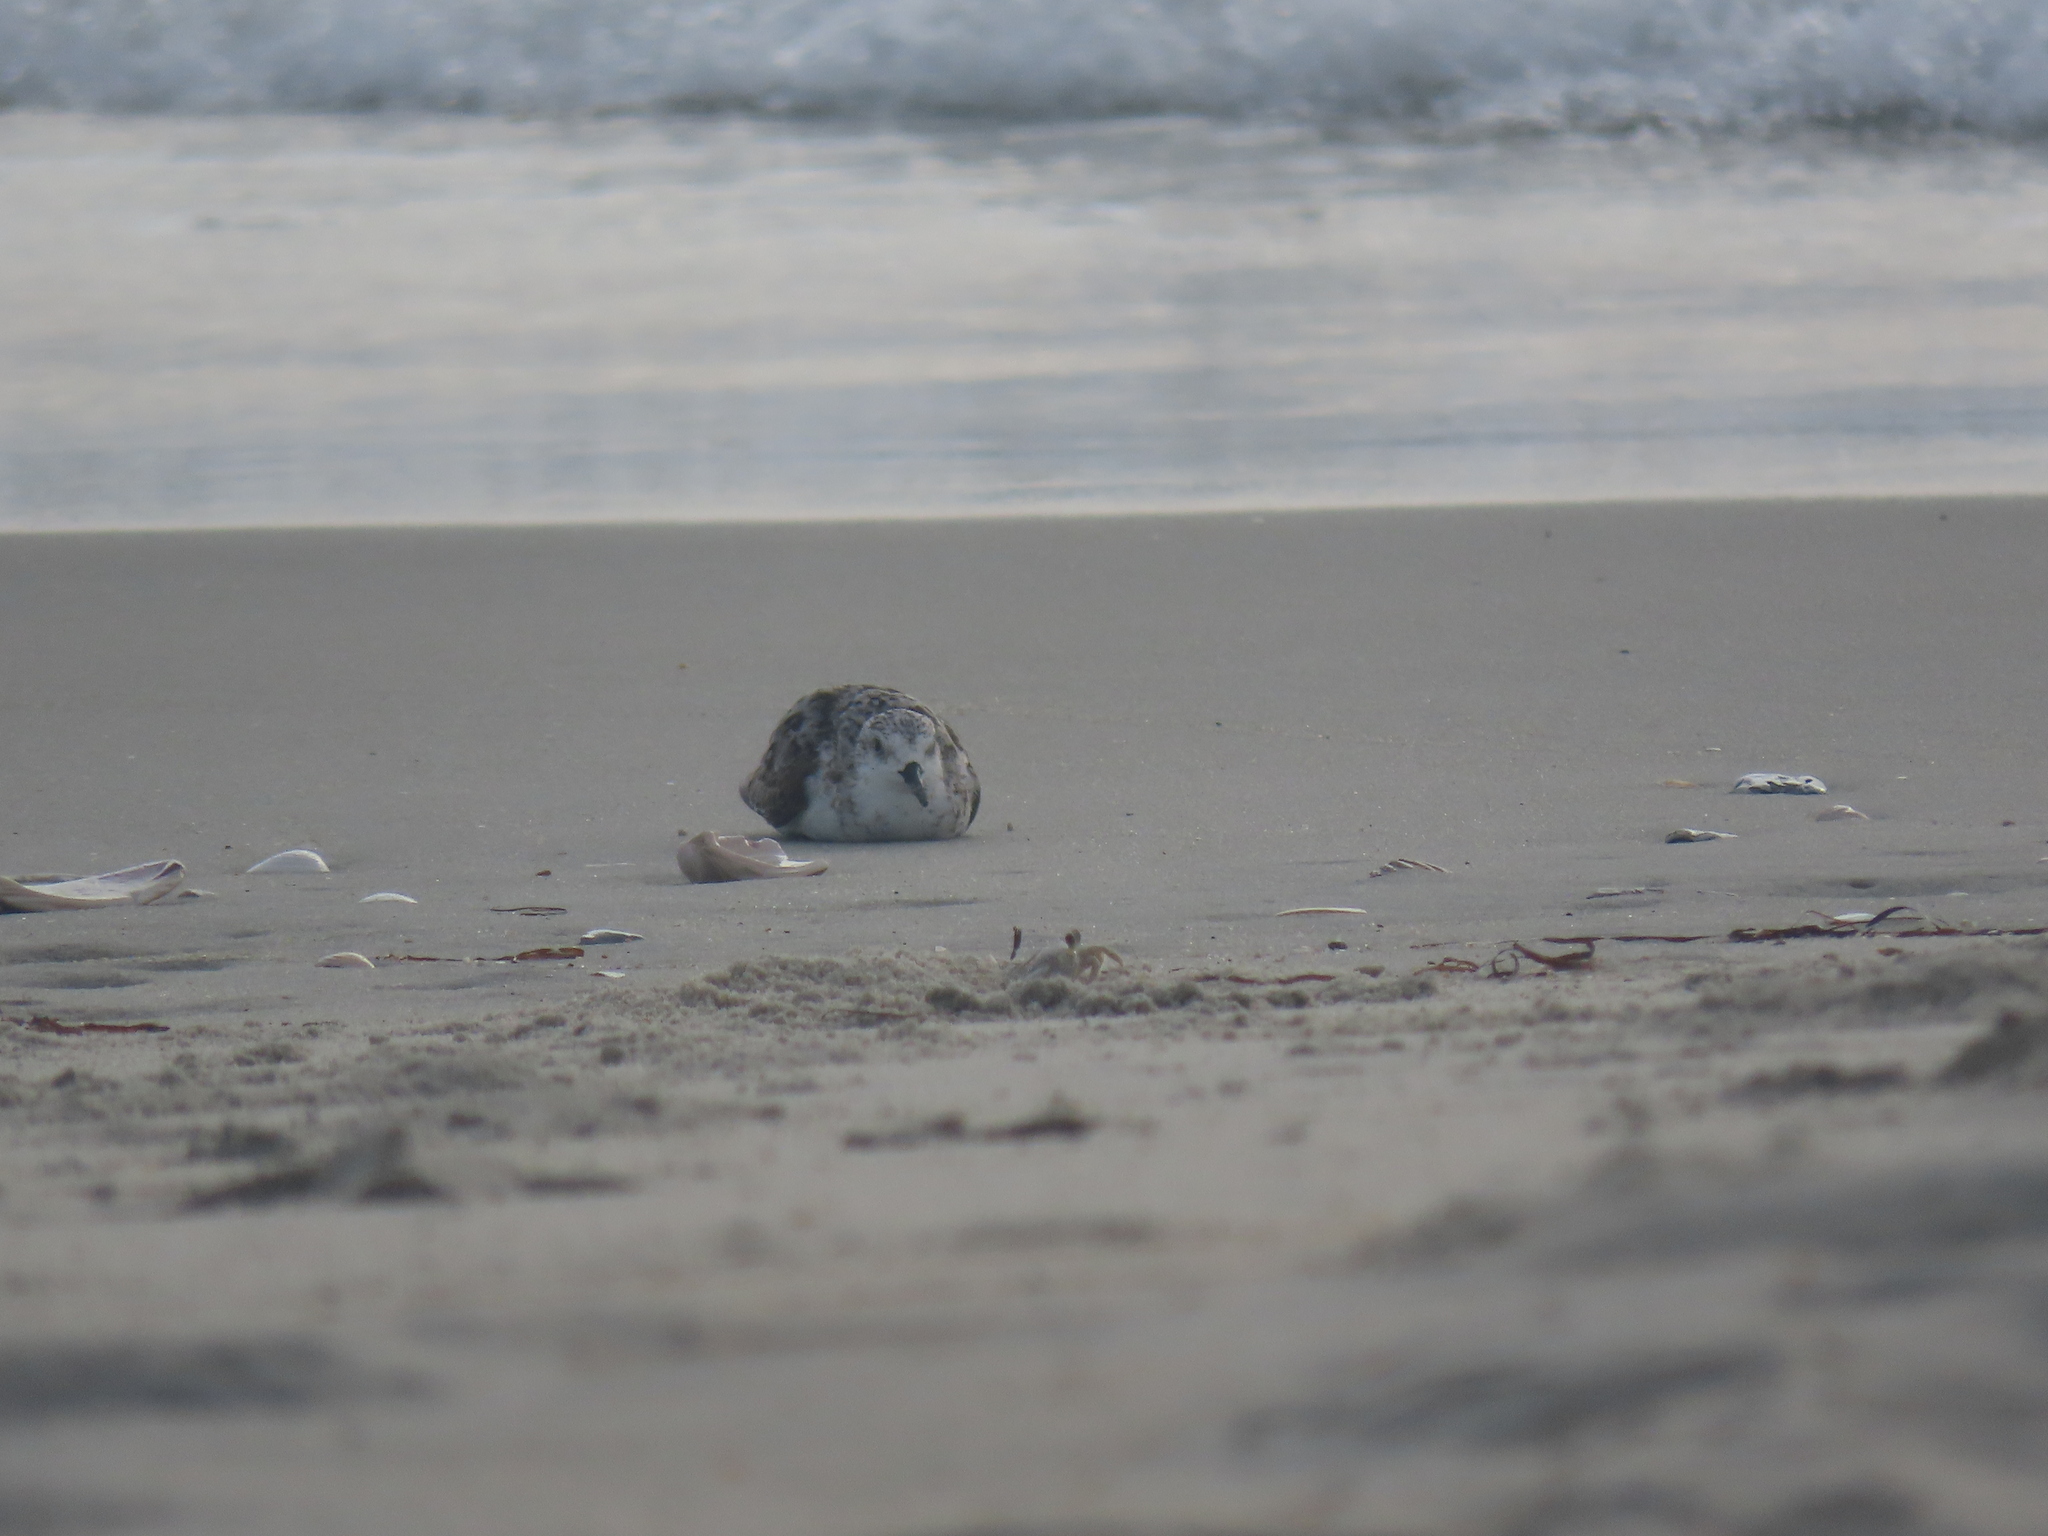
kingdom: Animalia
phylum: Chordata
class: Aves
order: Charadriiformes
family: Scolopacidae
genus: Calidris
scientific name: Calidris alba
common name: Sanderling
